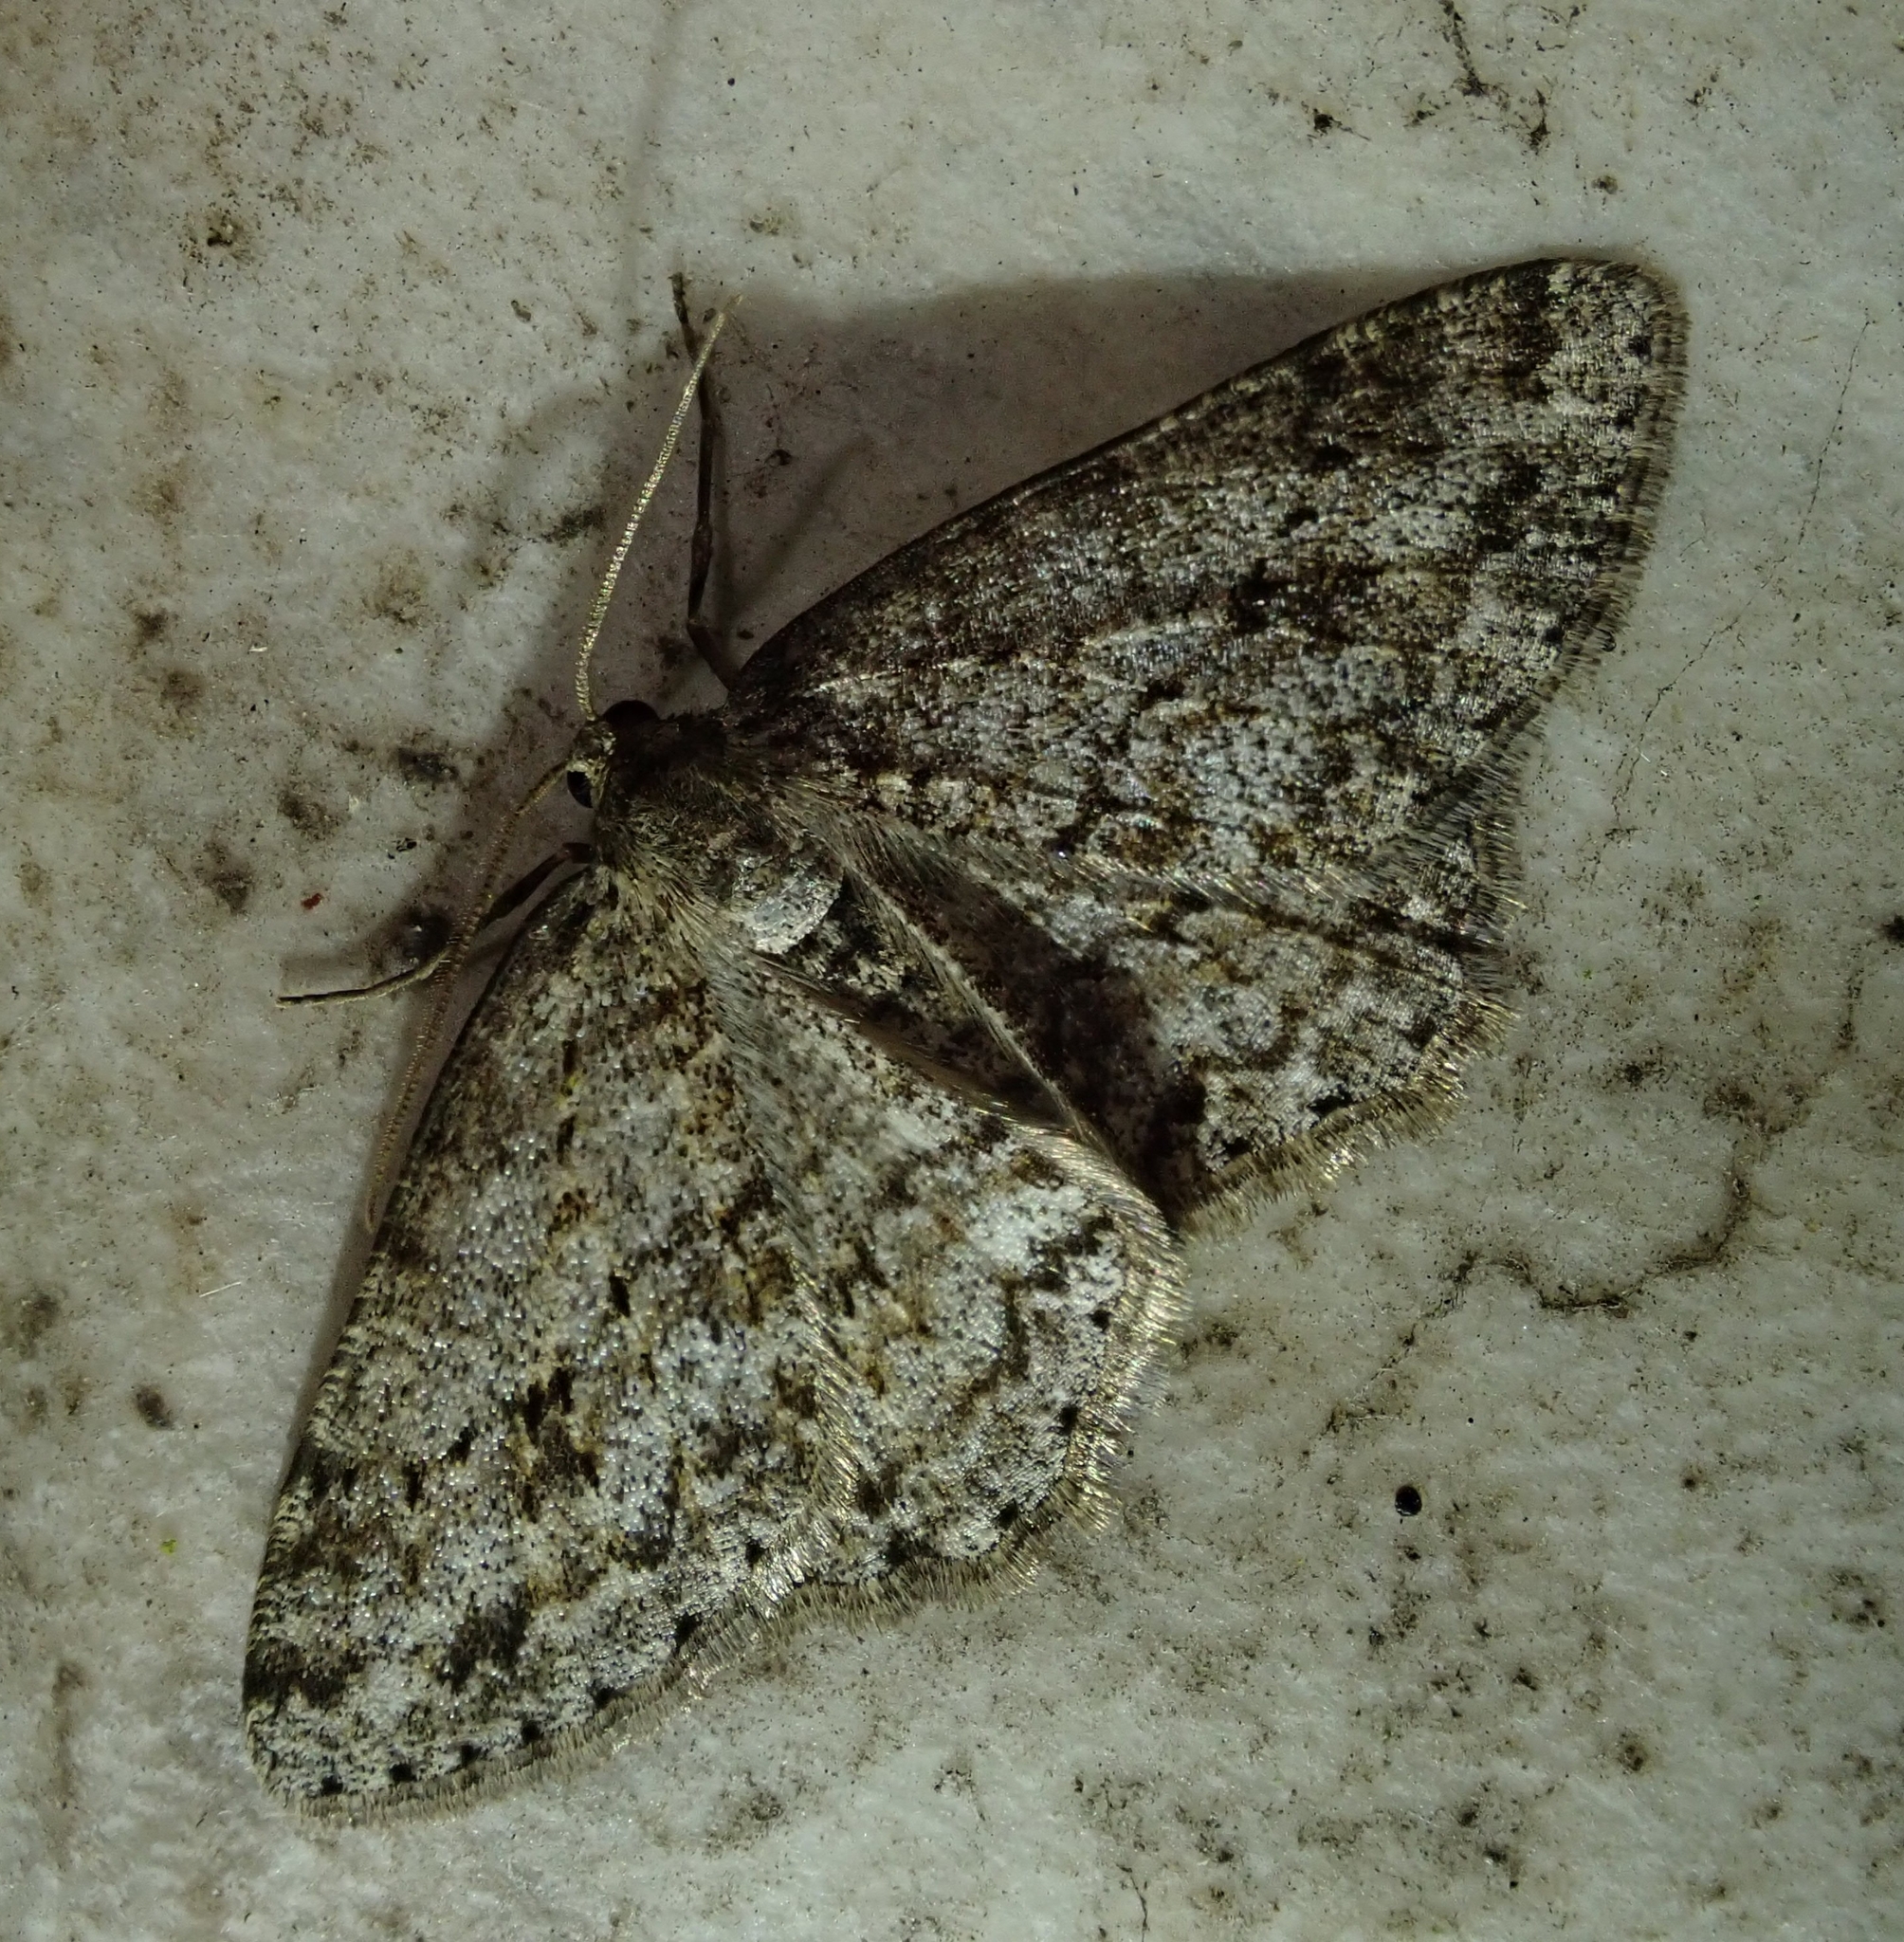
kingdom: Animalia
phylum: Arthropoda
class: Insecta
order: Lepidoptera
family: Geometridae
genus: Ectropis
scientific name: Ectropis crepuscularia
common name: Engrailed
